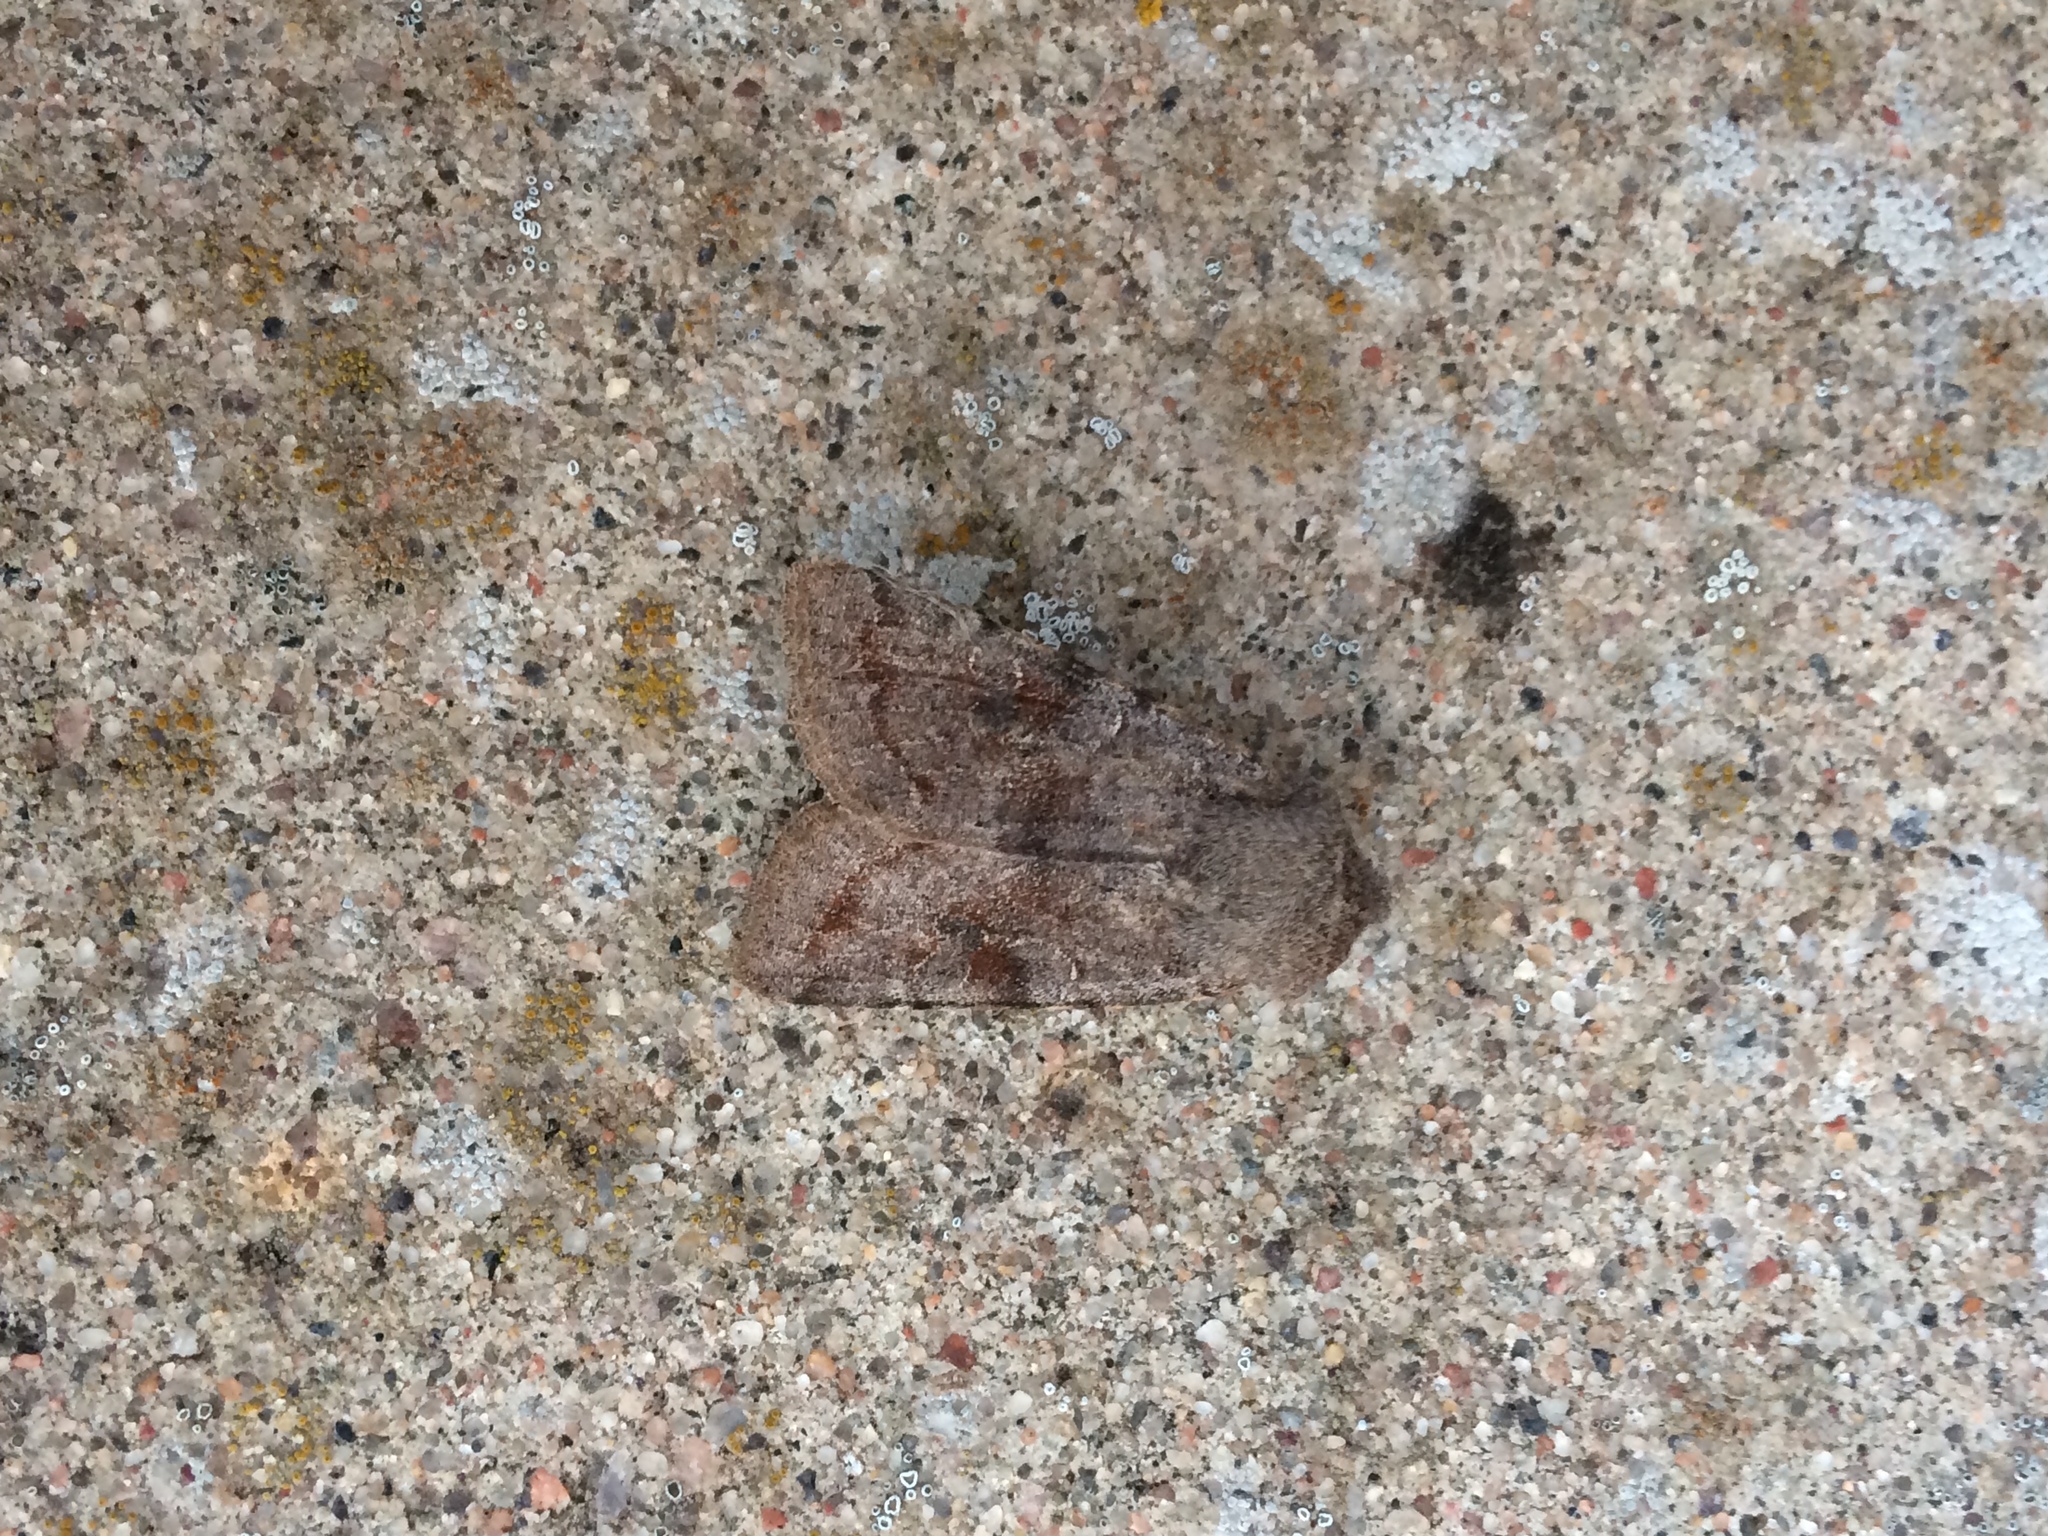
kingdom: Animalia
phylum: Arthropoda
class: Insecta
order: Lepidoptera
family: Noctuidae
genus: Orthosia
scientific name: Orthosia incerta
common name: Clouded drab
